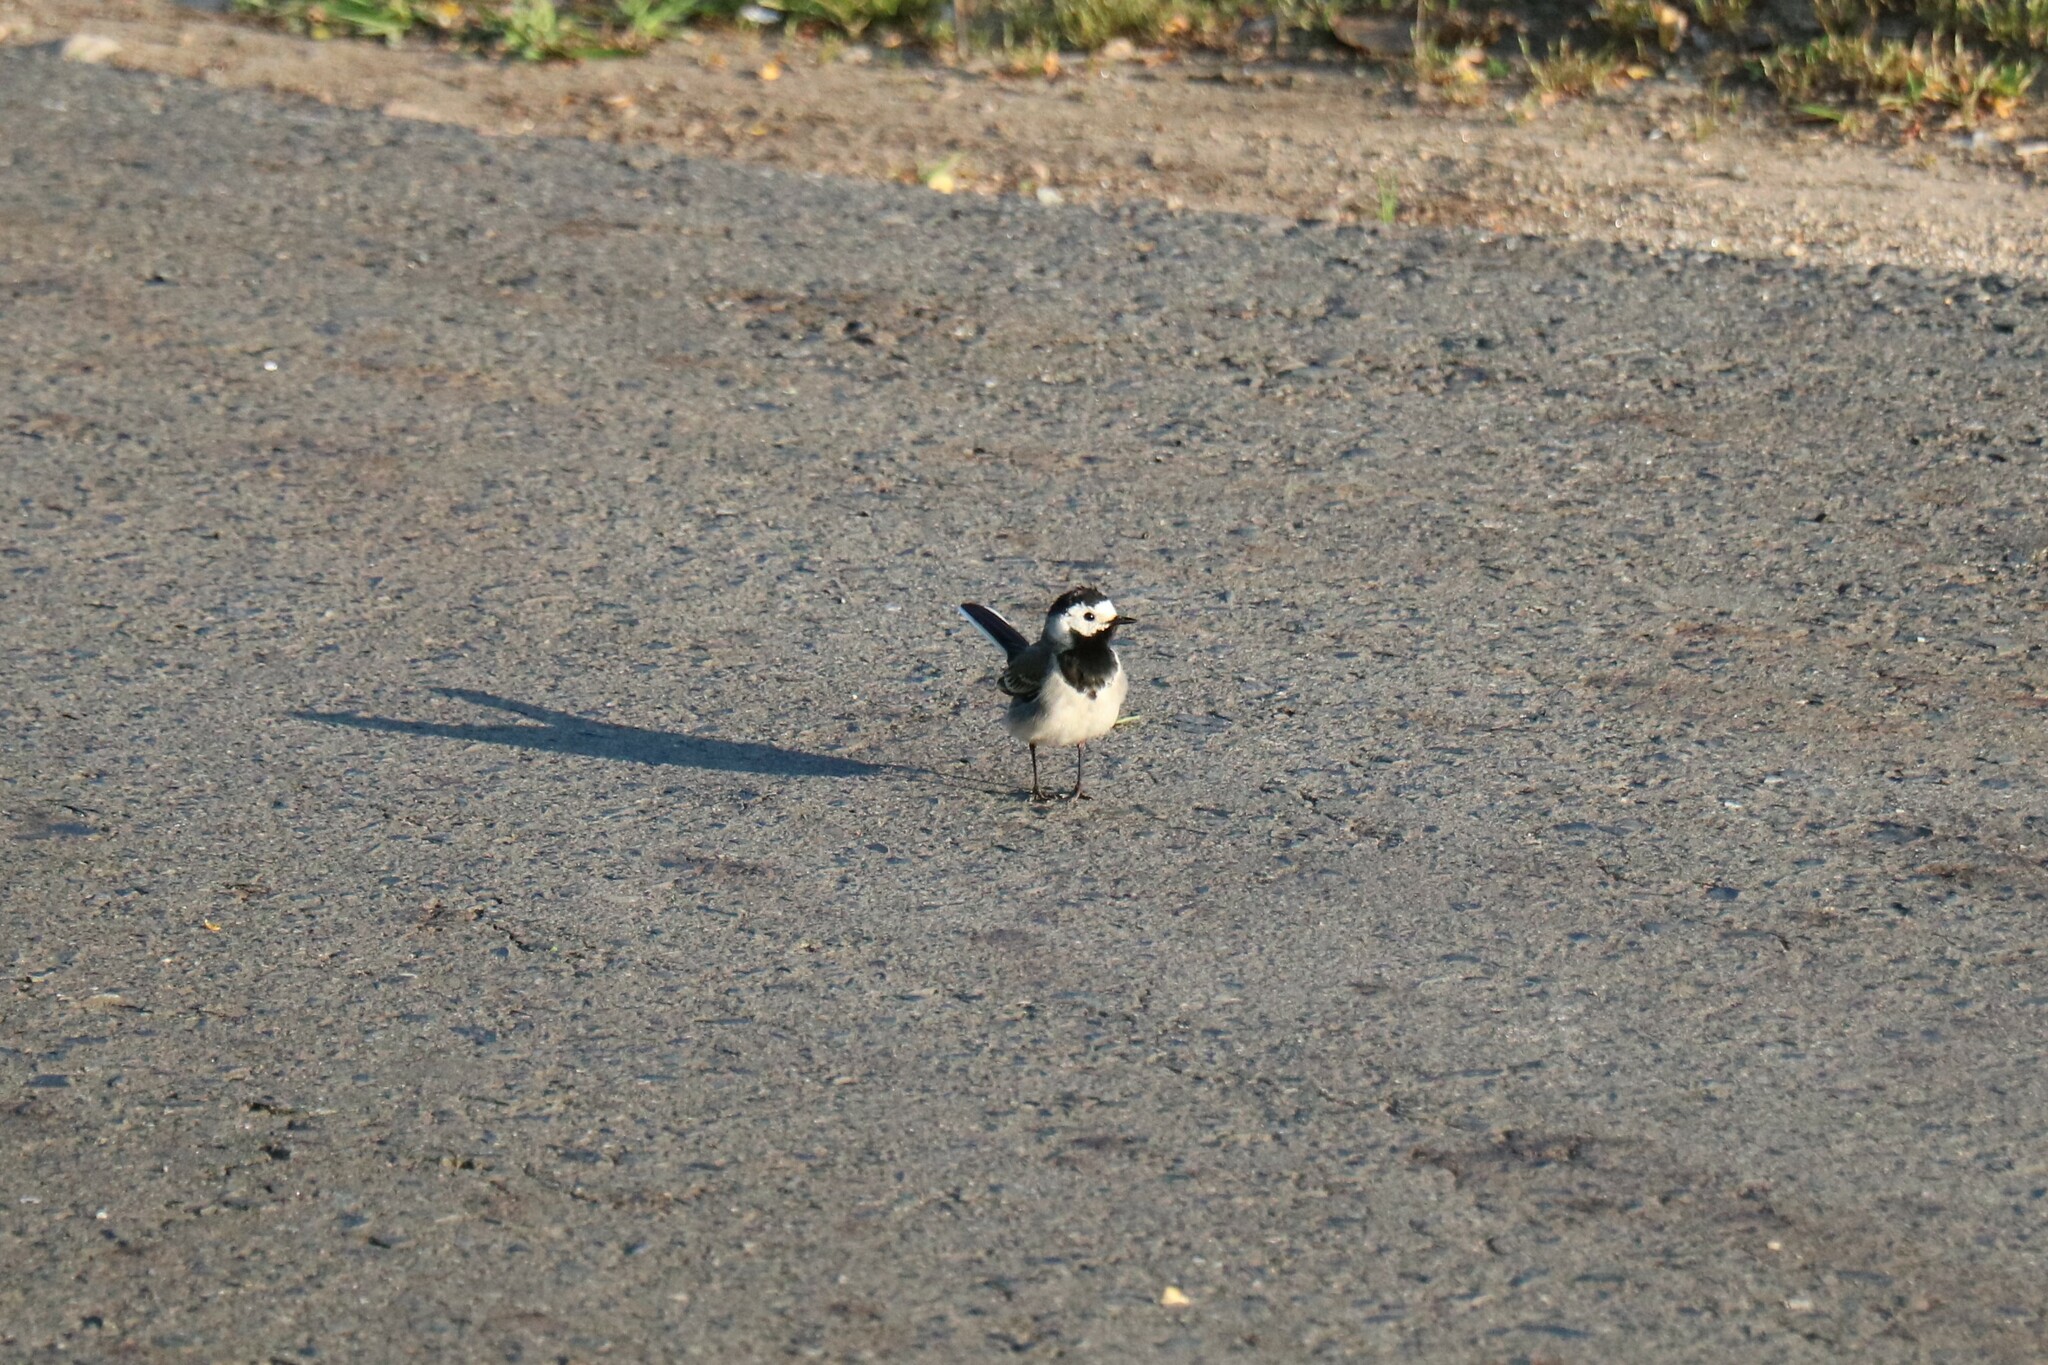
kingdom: Animalia
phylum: Chordata
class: Aves
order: Passeriformes
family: Motacillidae
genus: Motacilla
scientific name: Motacilla alba
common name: White wagtail
